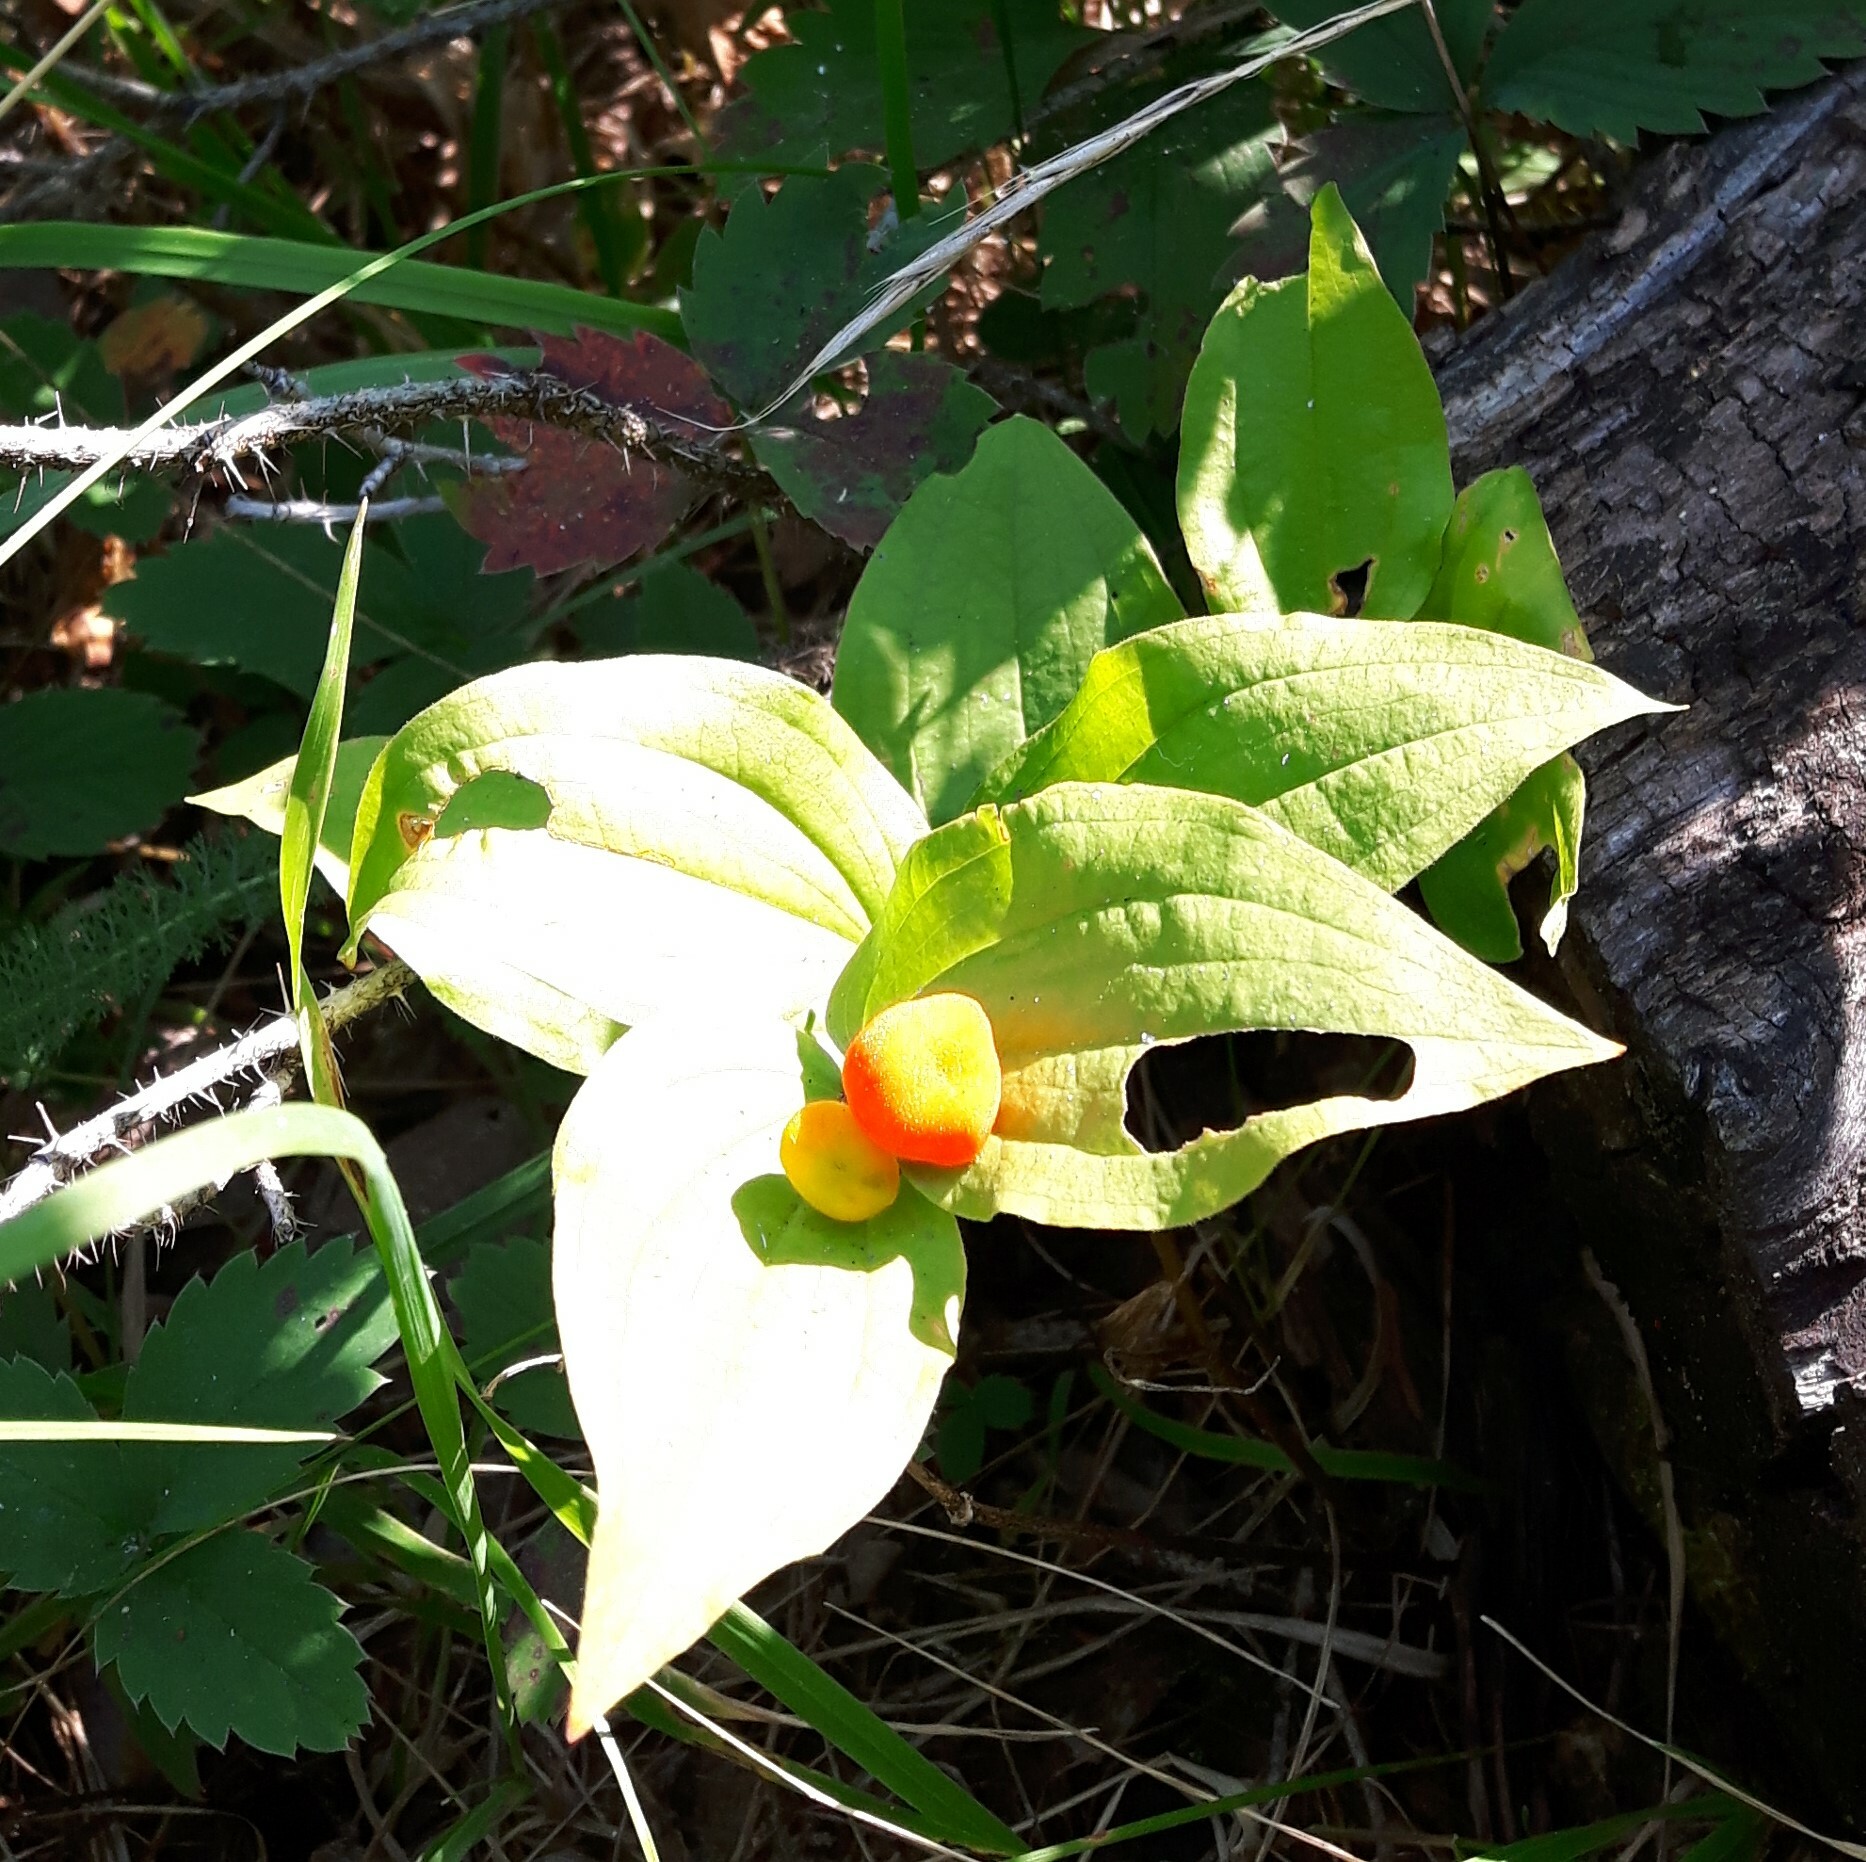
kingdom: Plantae
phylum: Tracheophyta
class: Liliopsida
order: Liliales
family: Liliaceae
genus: Prosartes
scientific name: Prosartes trachycarpa
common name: Rough-fruit fairy-bells
